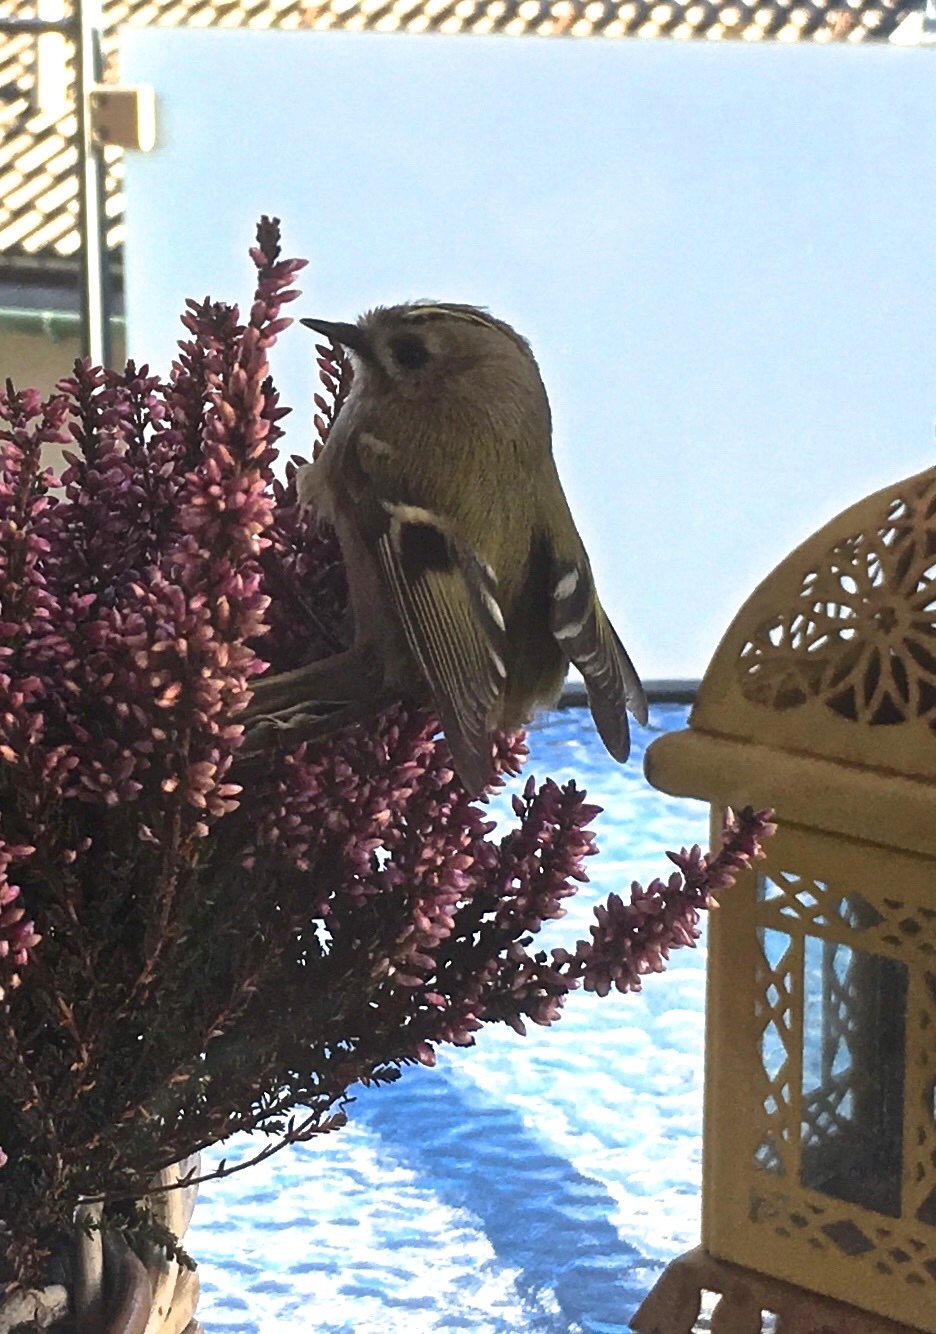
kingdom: Animalia
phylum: Chordata
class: Aves
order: Passeriformes
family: Regulidae
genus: Regulus
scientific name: Regulus regulus
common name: Goldcrest
